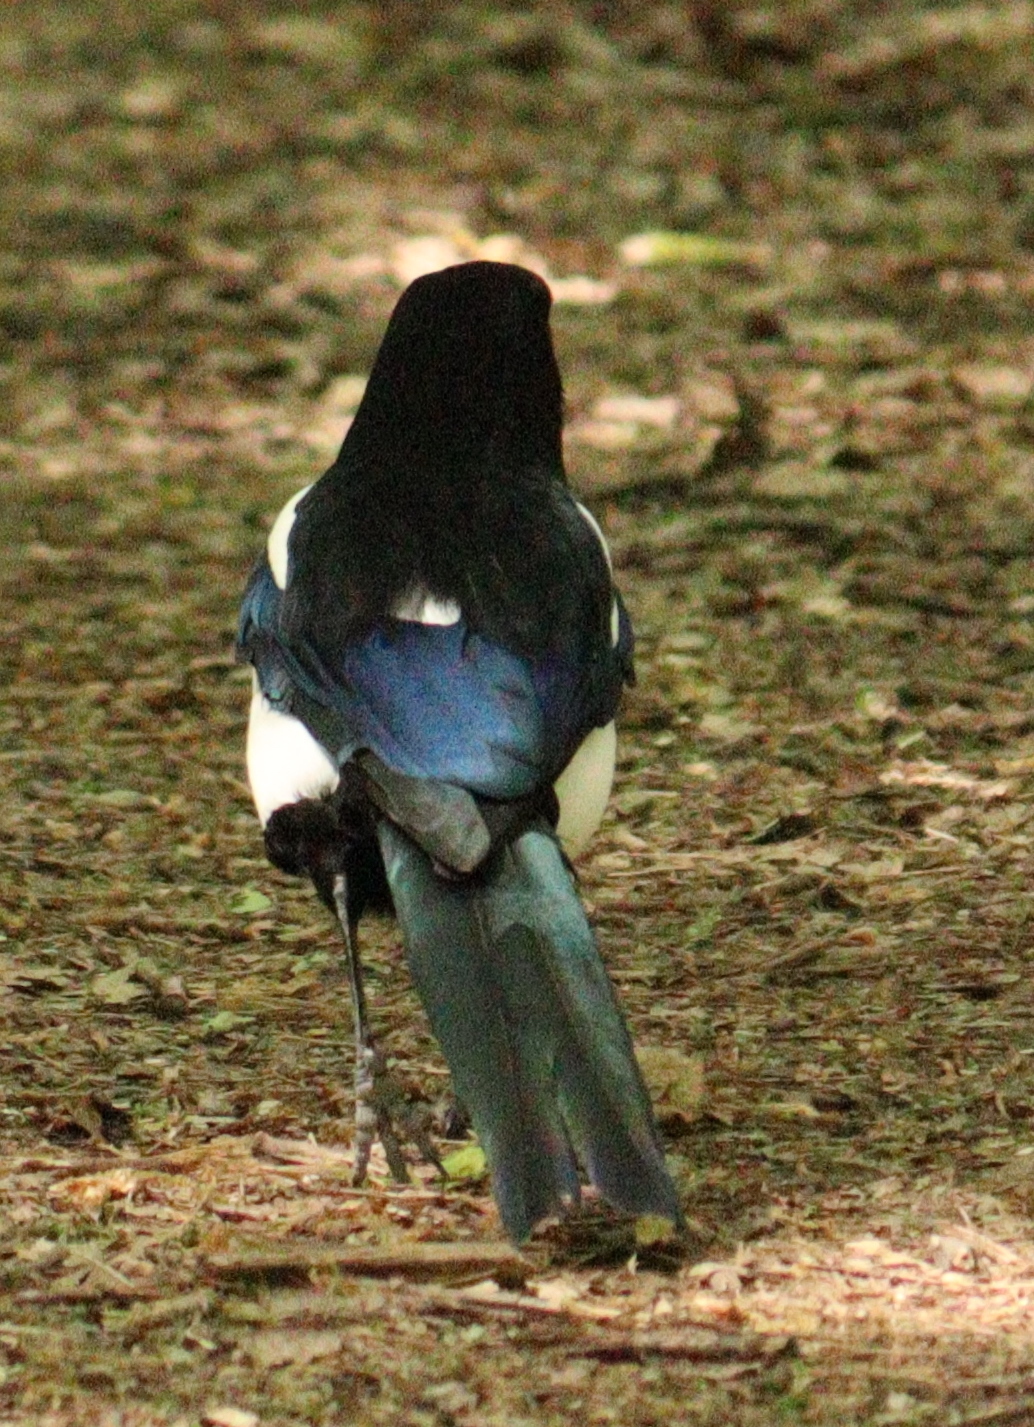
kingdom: Animalia
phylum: Chordata
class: Aves
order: Passeriformes
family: Corvidae
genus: Pica
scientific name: Pica pica
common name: Eurasian magpie
